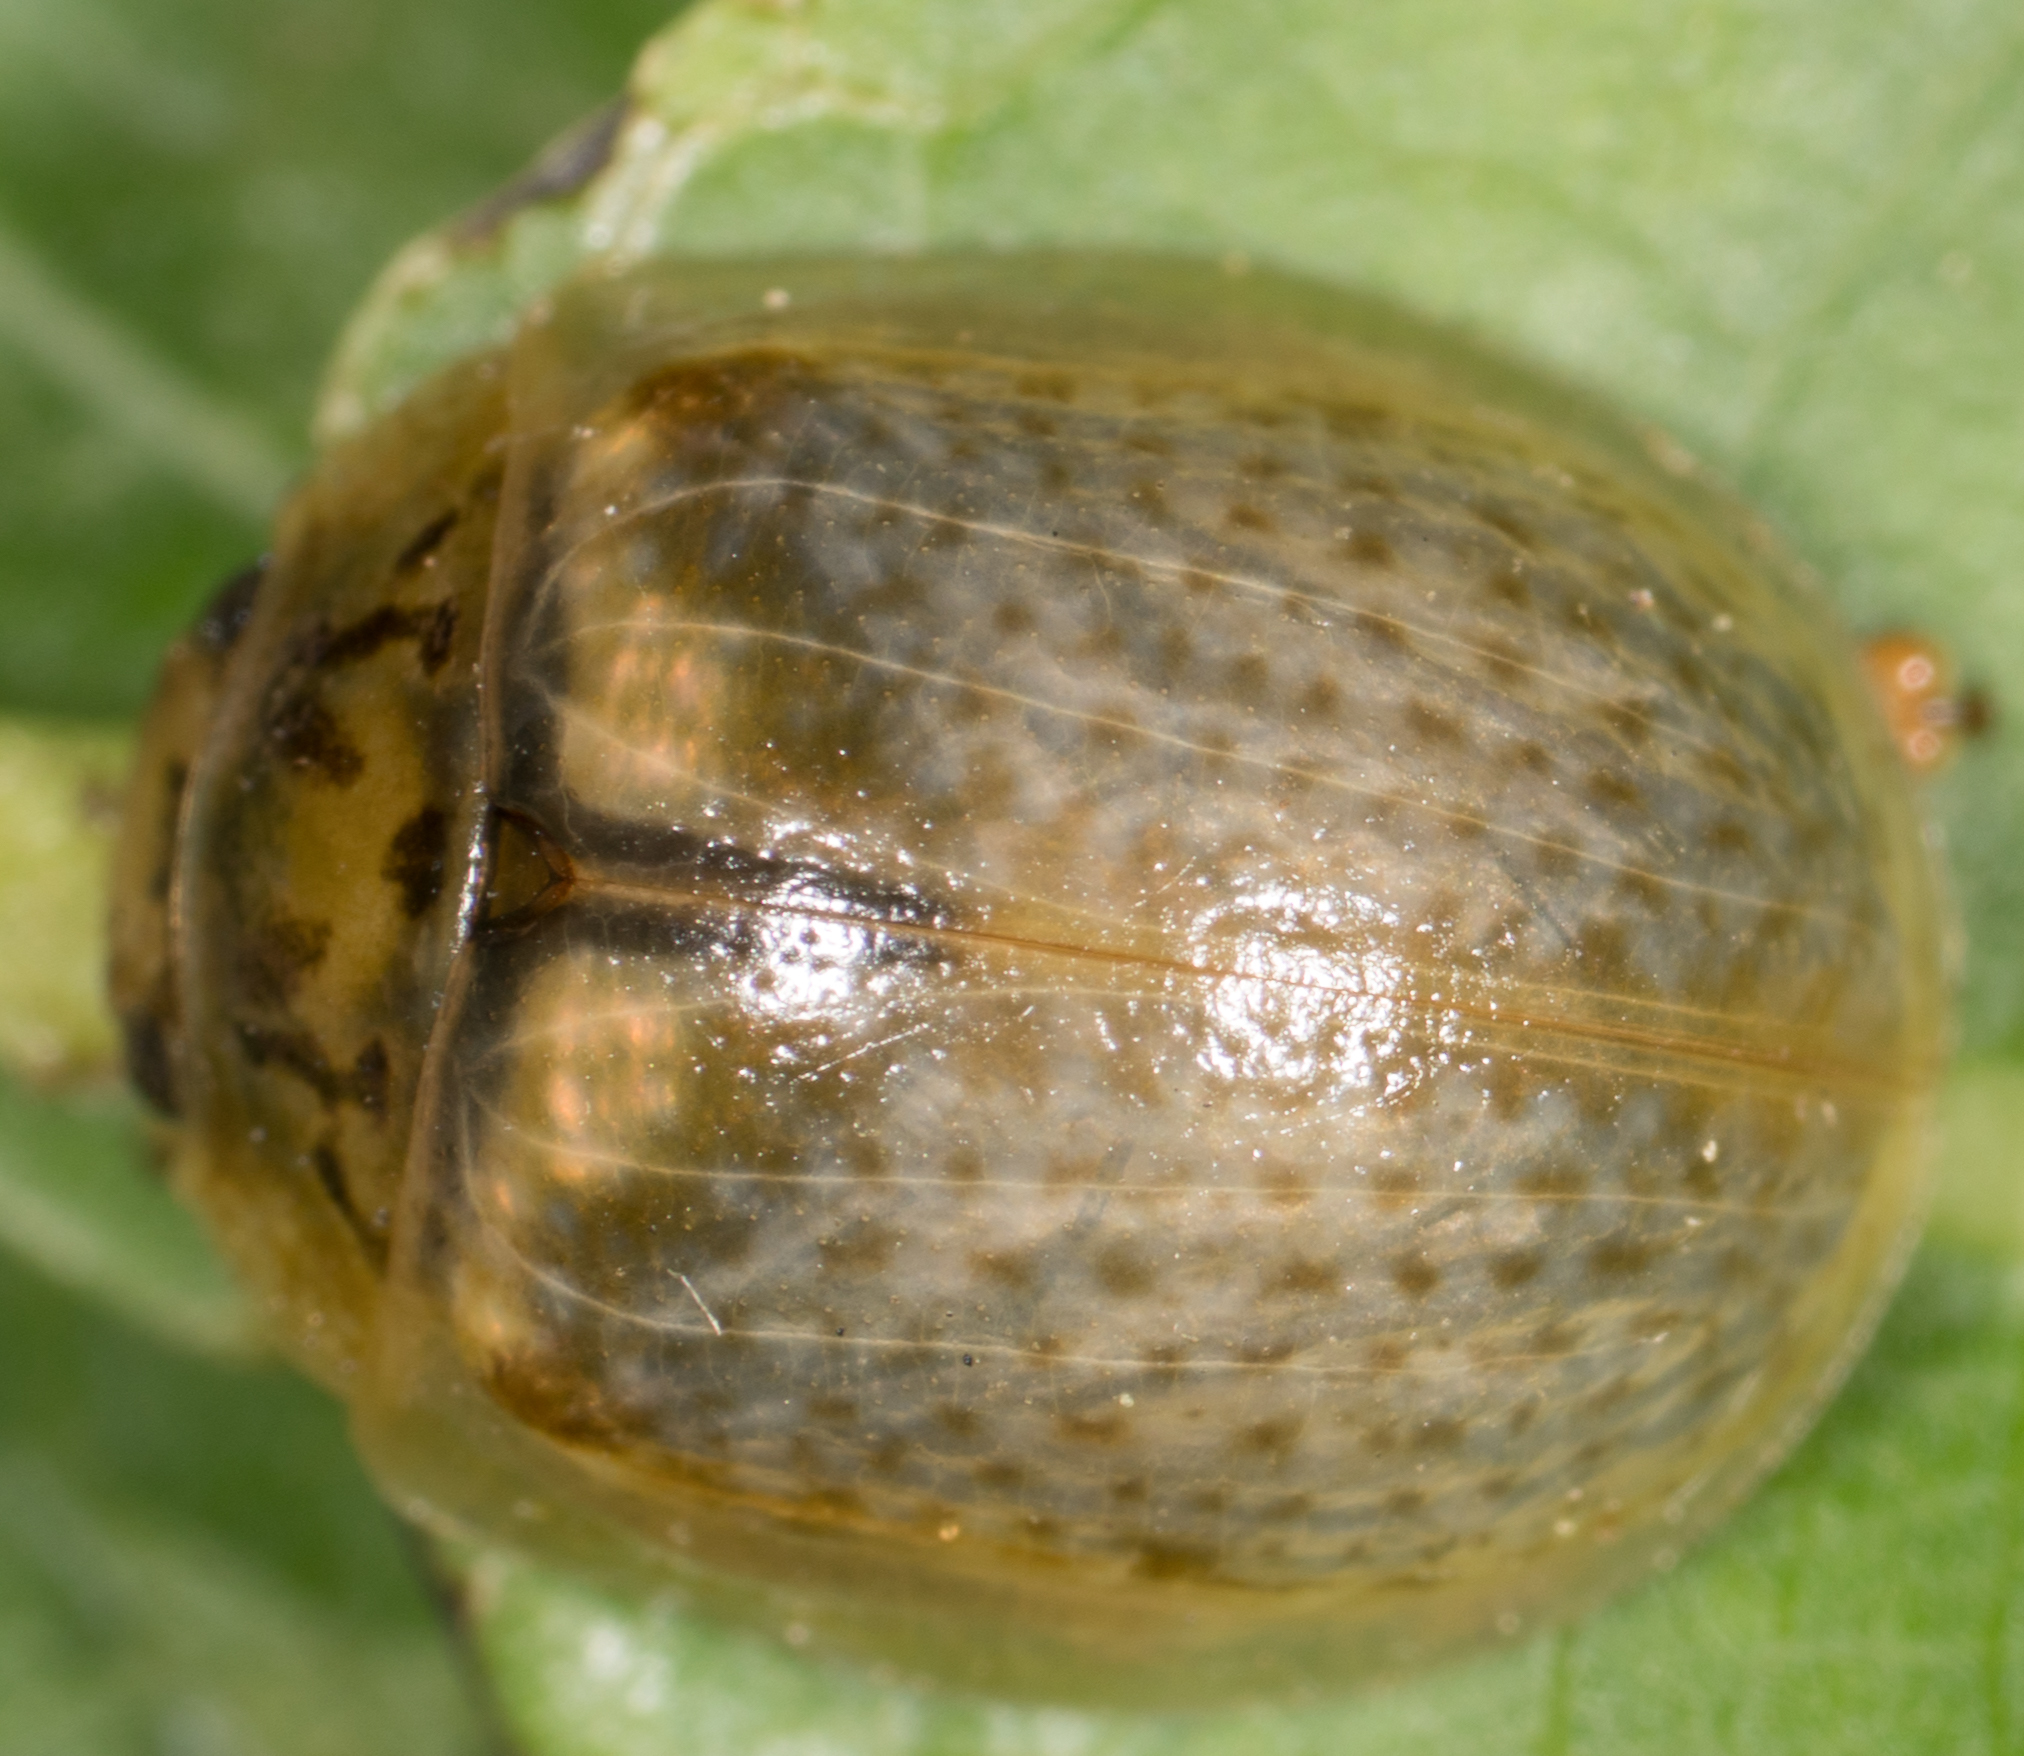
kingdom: Animalia
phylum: Arthropoda
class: Insecta
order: Coleoptera
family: Chrysomelidae
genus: Paropsisterna
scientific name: Paropsisterna m-fuscum
